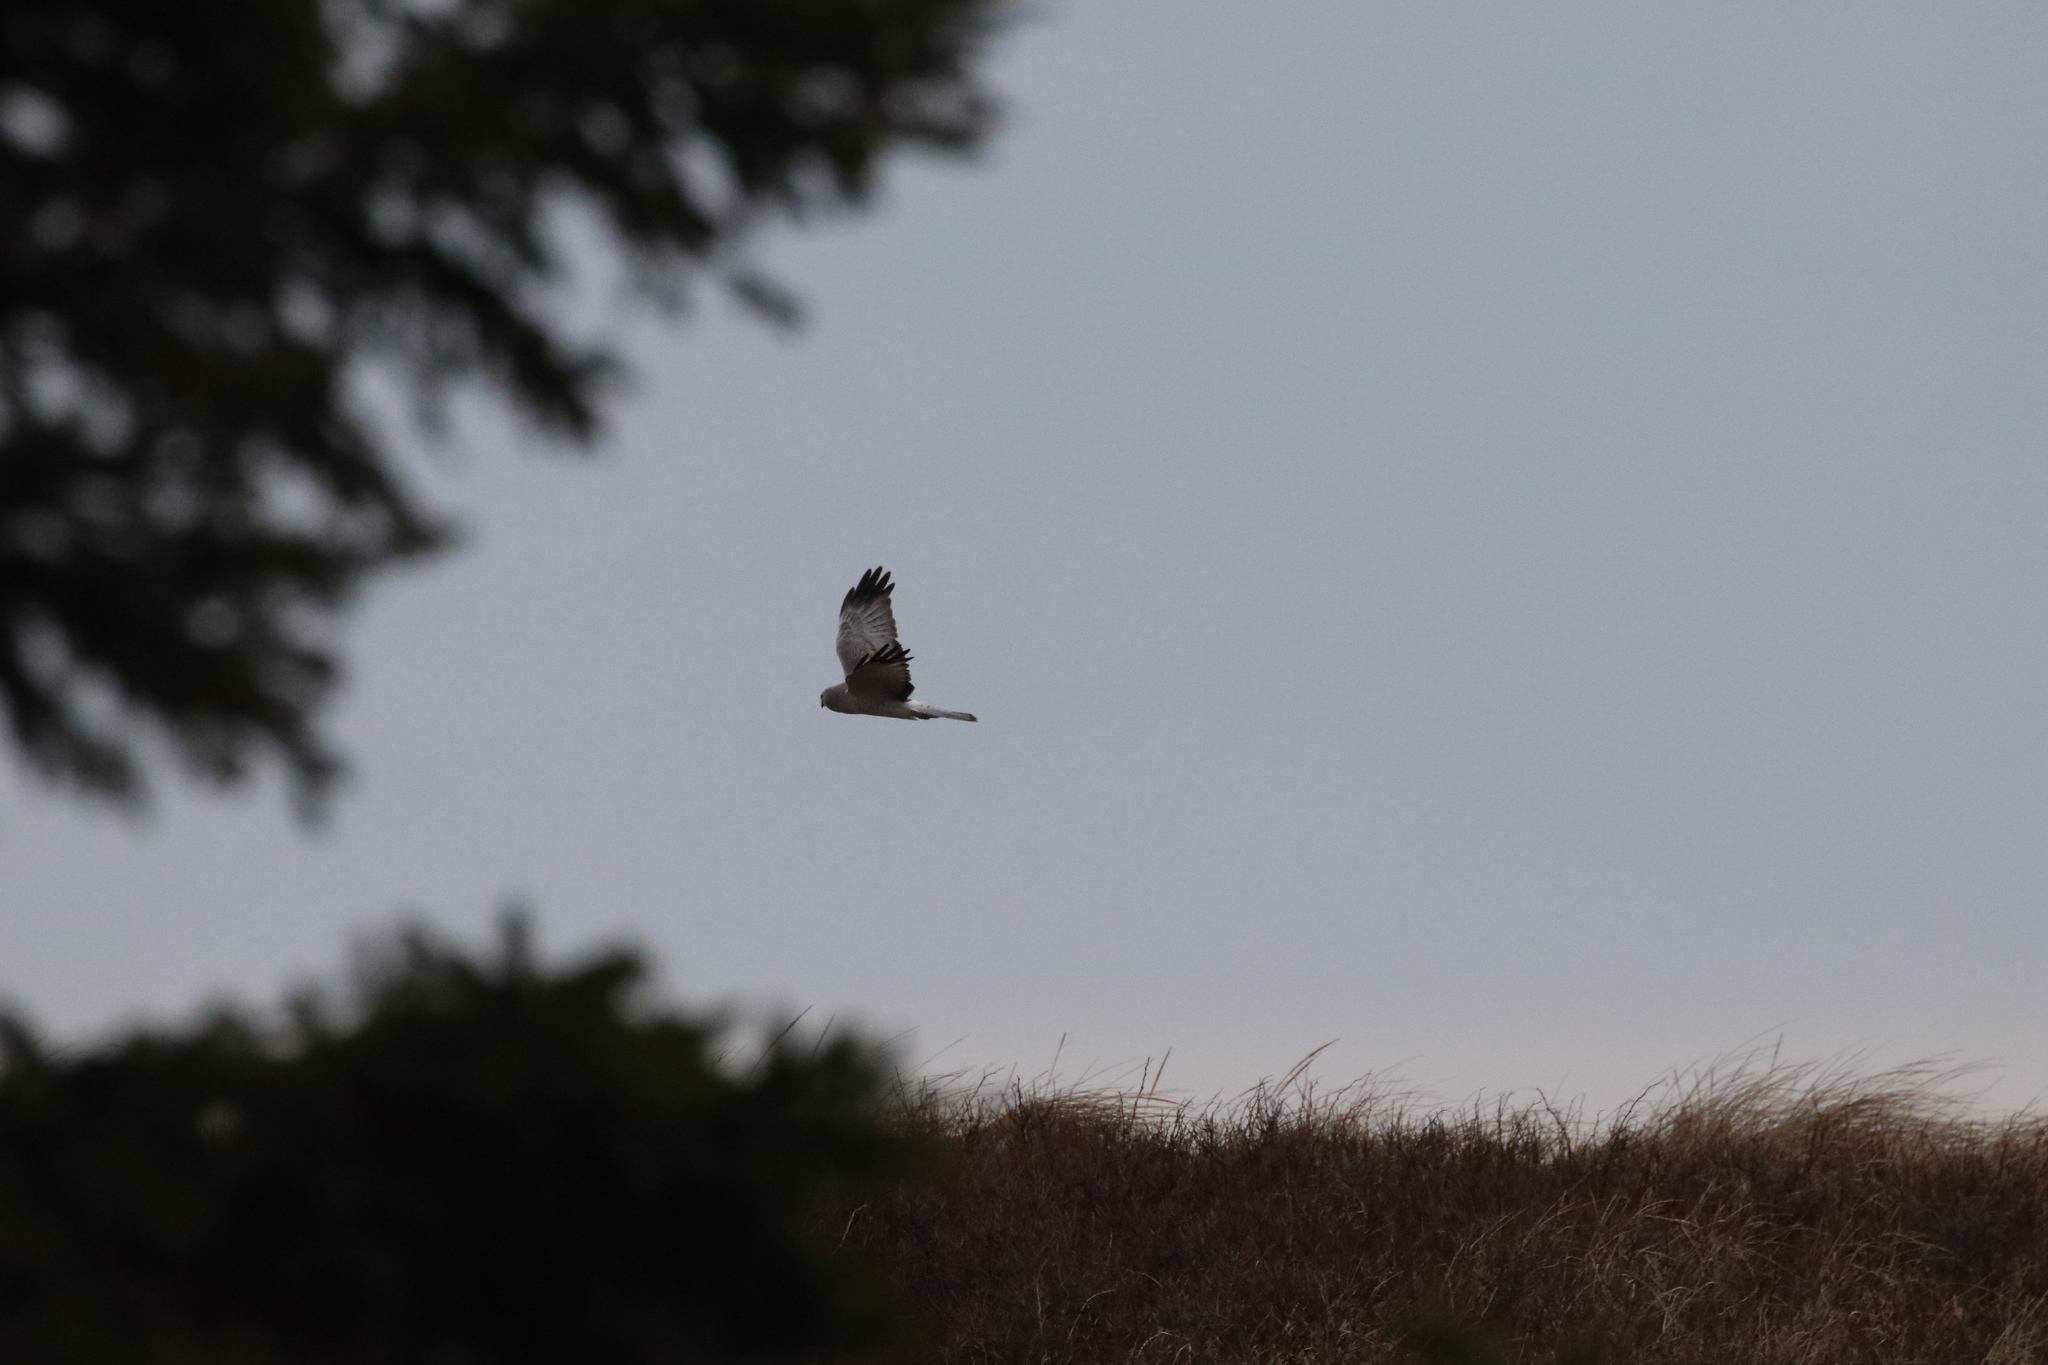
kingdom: Animalia
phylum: Chordata
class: Aves
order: Accipitriformes
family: Accipitridae
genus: Circus
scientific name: Circus cyaneus
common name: Hen harrier
